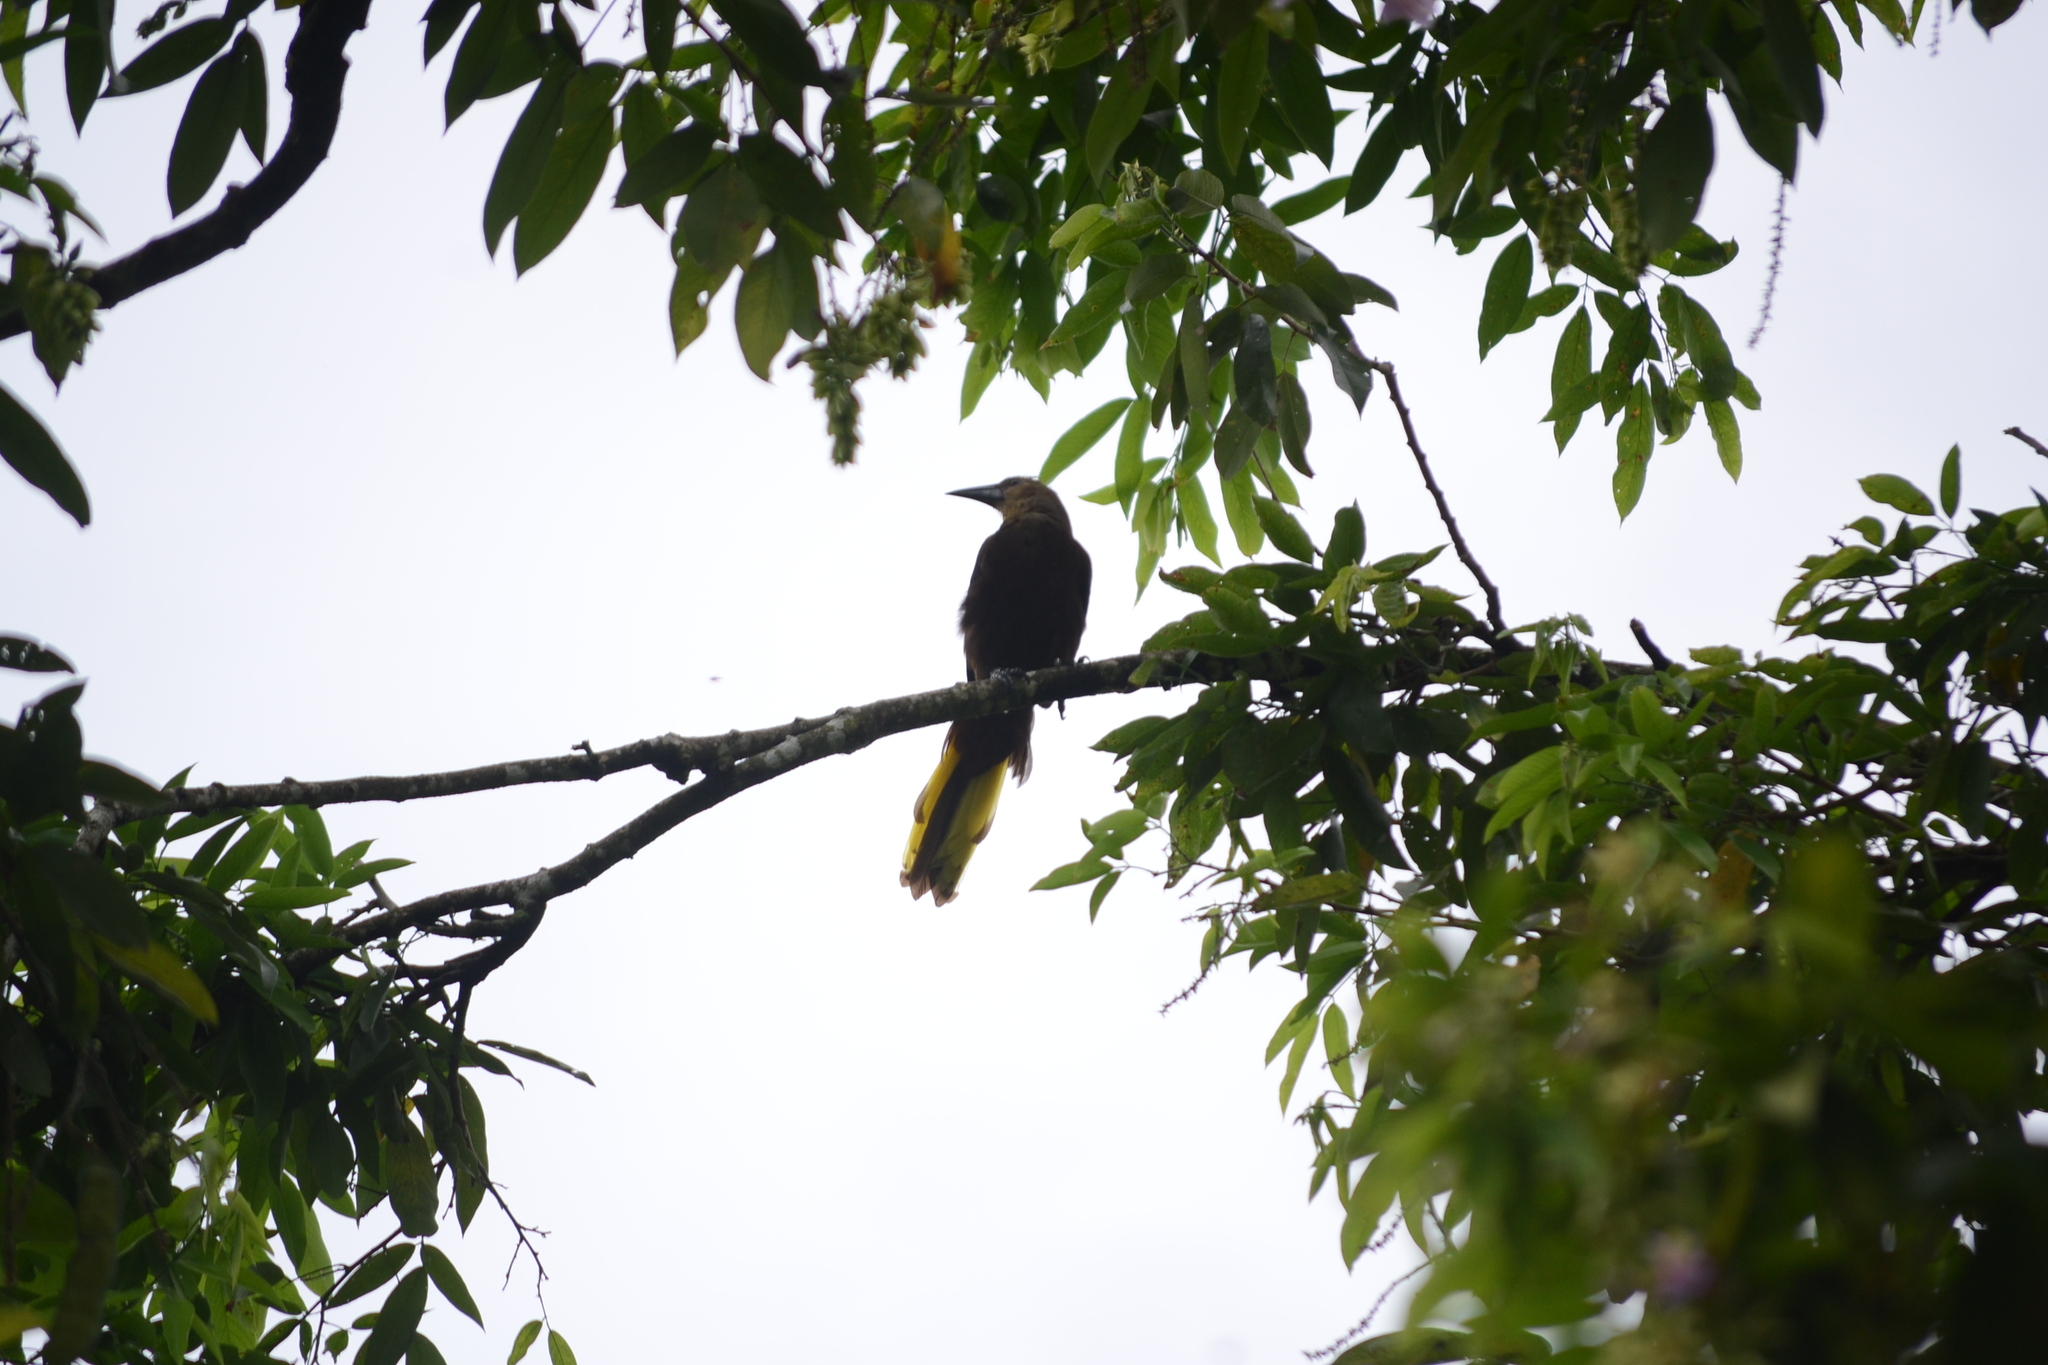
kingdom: Animalia
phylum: Chordata
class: Aves
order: Passeriformes
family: Icteridae
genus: Psarocolius
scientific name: Psarocolius angustifrons
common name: Russet-backed oropendola
